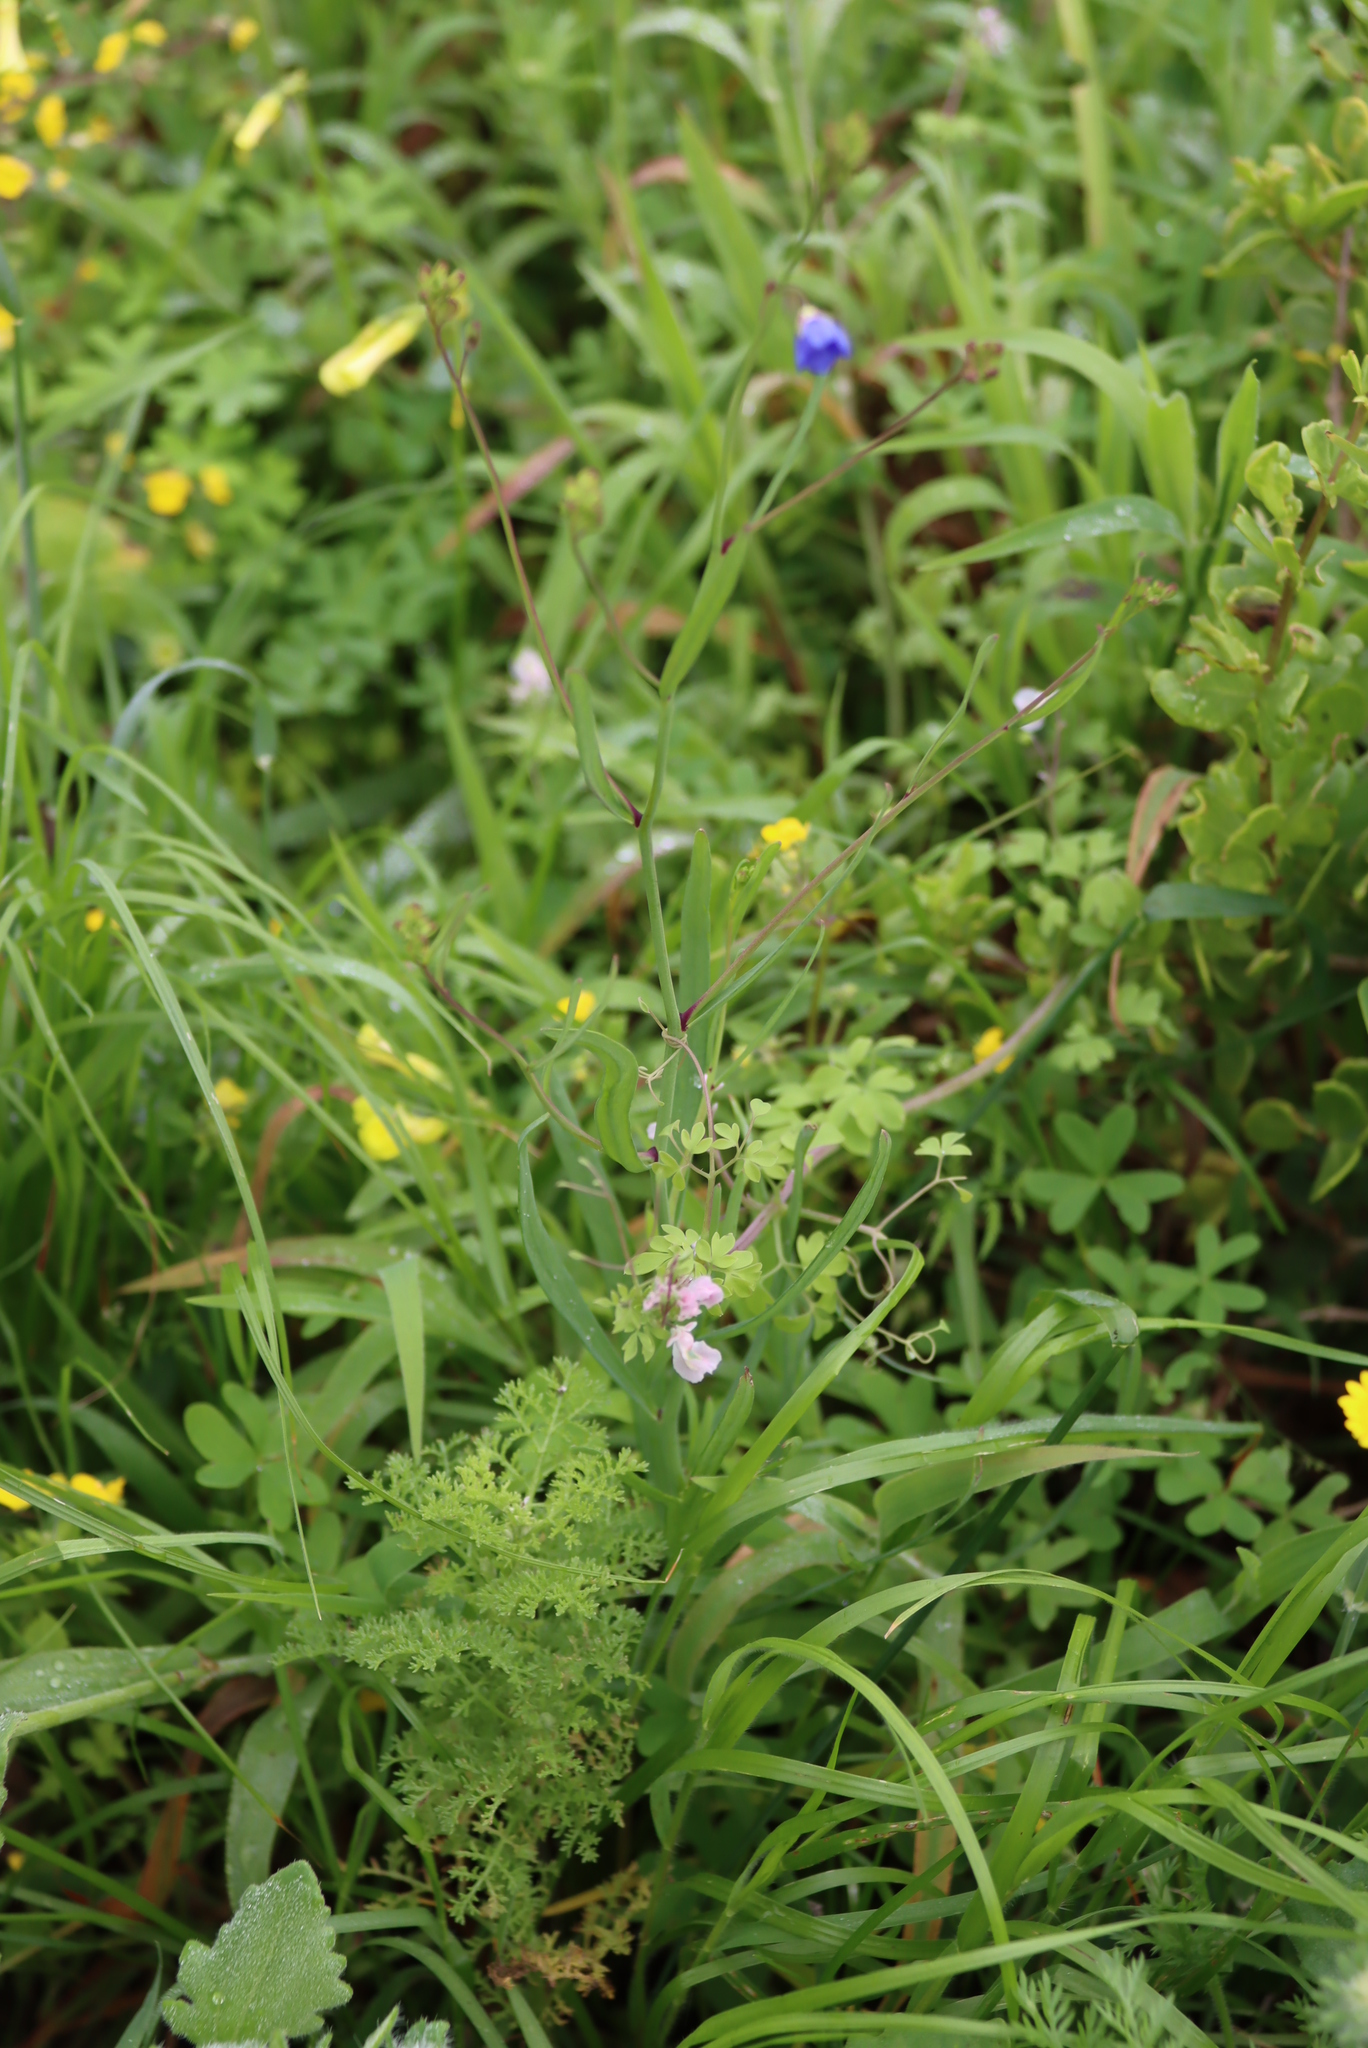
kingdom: Plantae
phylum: Tracheophyta
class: Magnoliopsida
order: Brassicales
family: Brassicaceae
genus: Heliophila
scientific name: Heliophila coronopifolia
